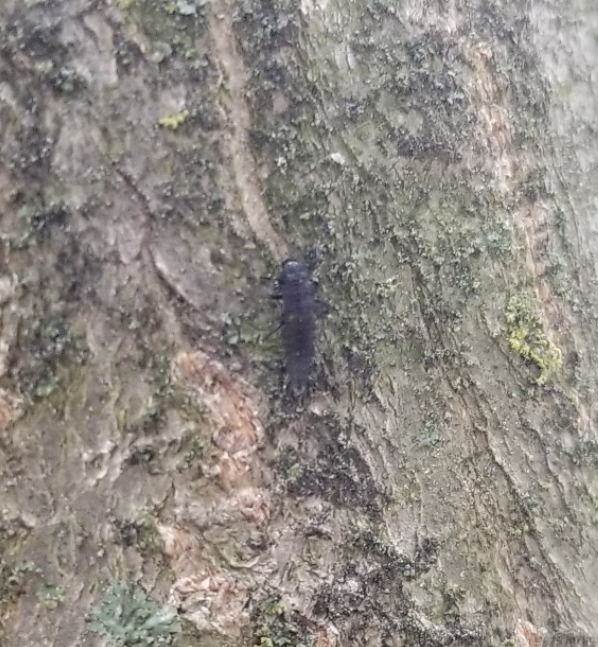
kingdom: Animalia
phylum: Arthropoda
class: Insecta
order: Coleoptera
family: Coccinellidae
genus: Harmonia
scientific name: Harmonia axyridis
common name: Harlequin ladybird
